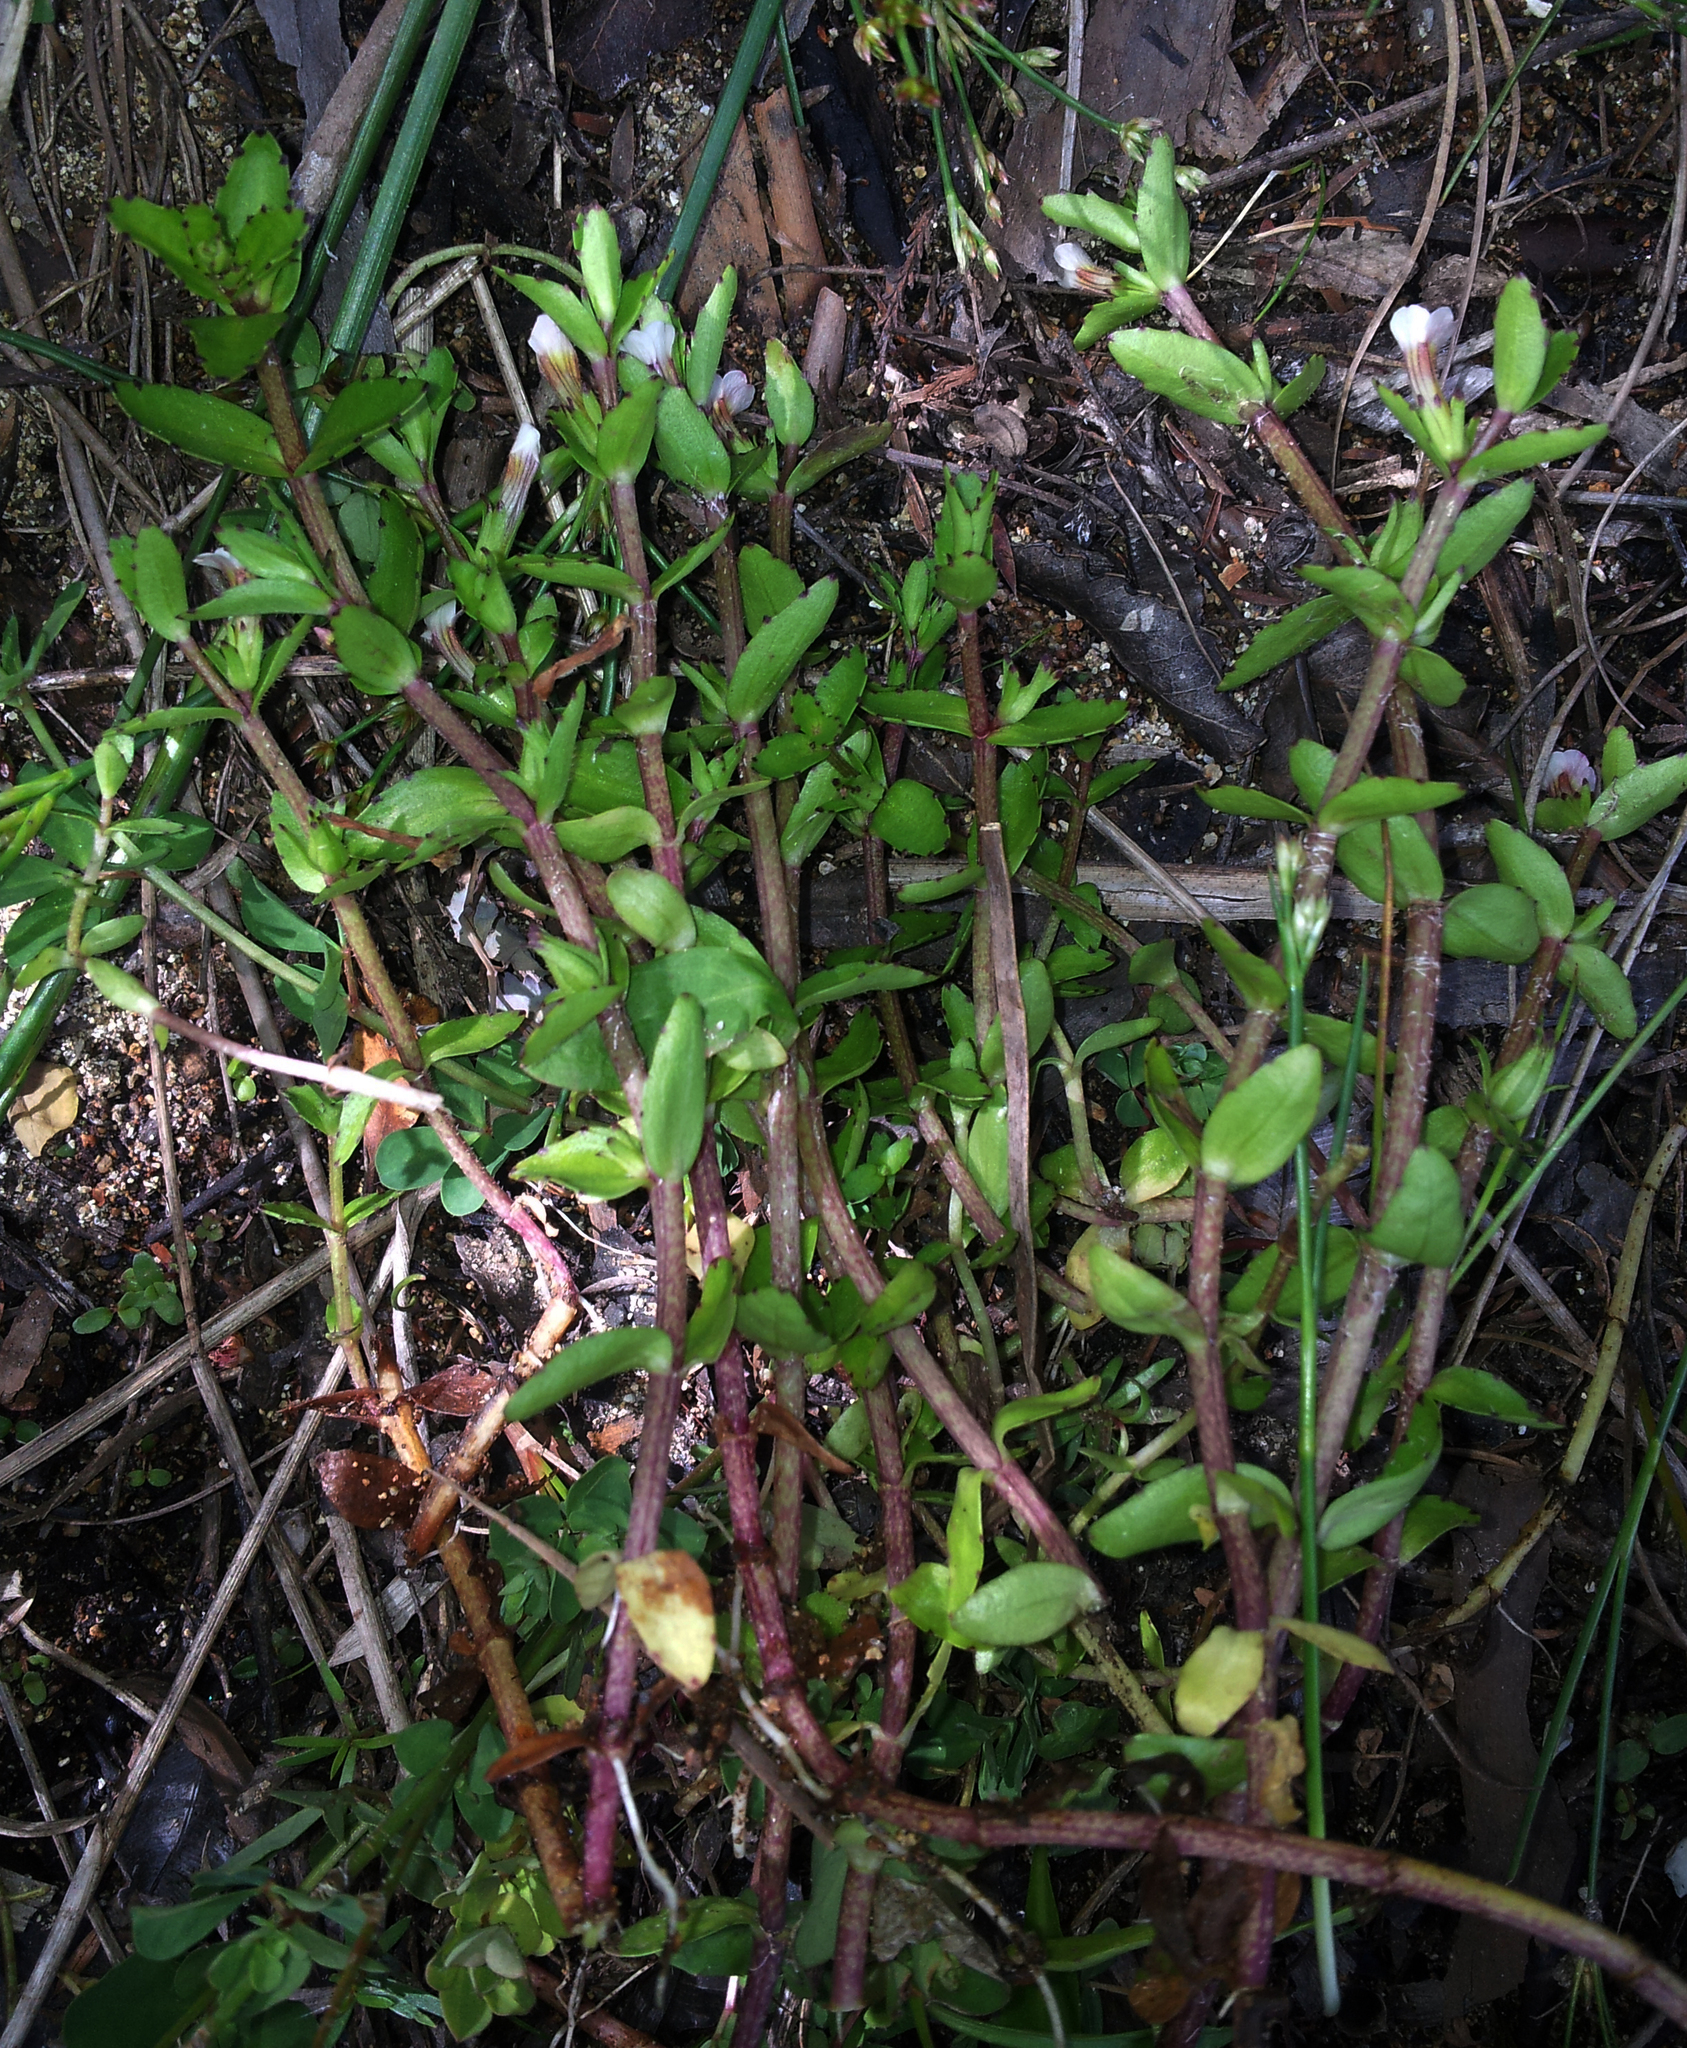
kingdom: Plantae
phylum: Tracheophyta
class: Magnoliopsida
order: Lamiales
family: Plantaginaceae
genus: Gratiola
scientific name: Gratiola sexdentata
